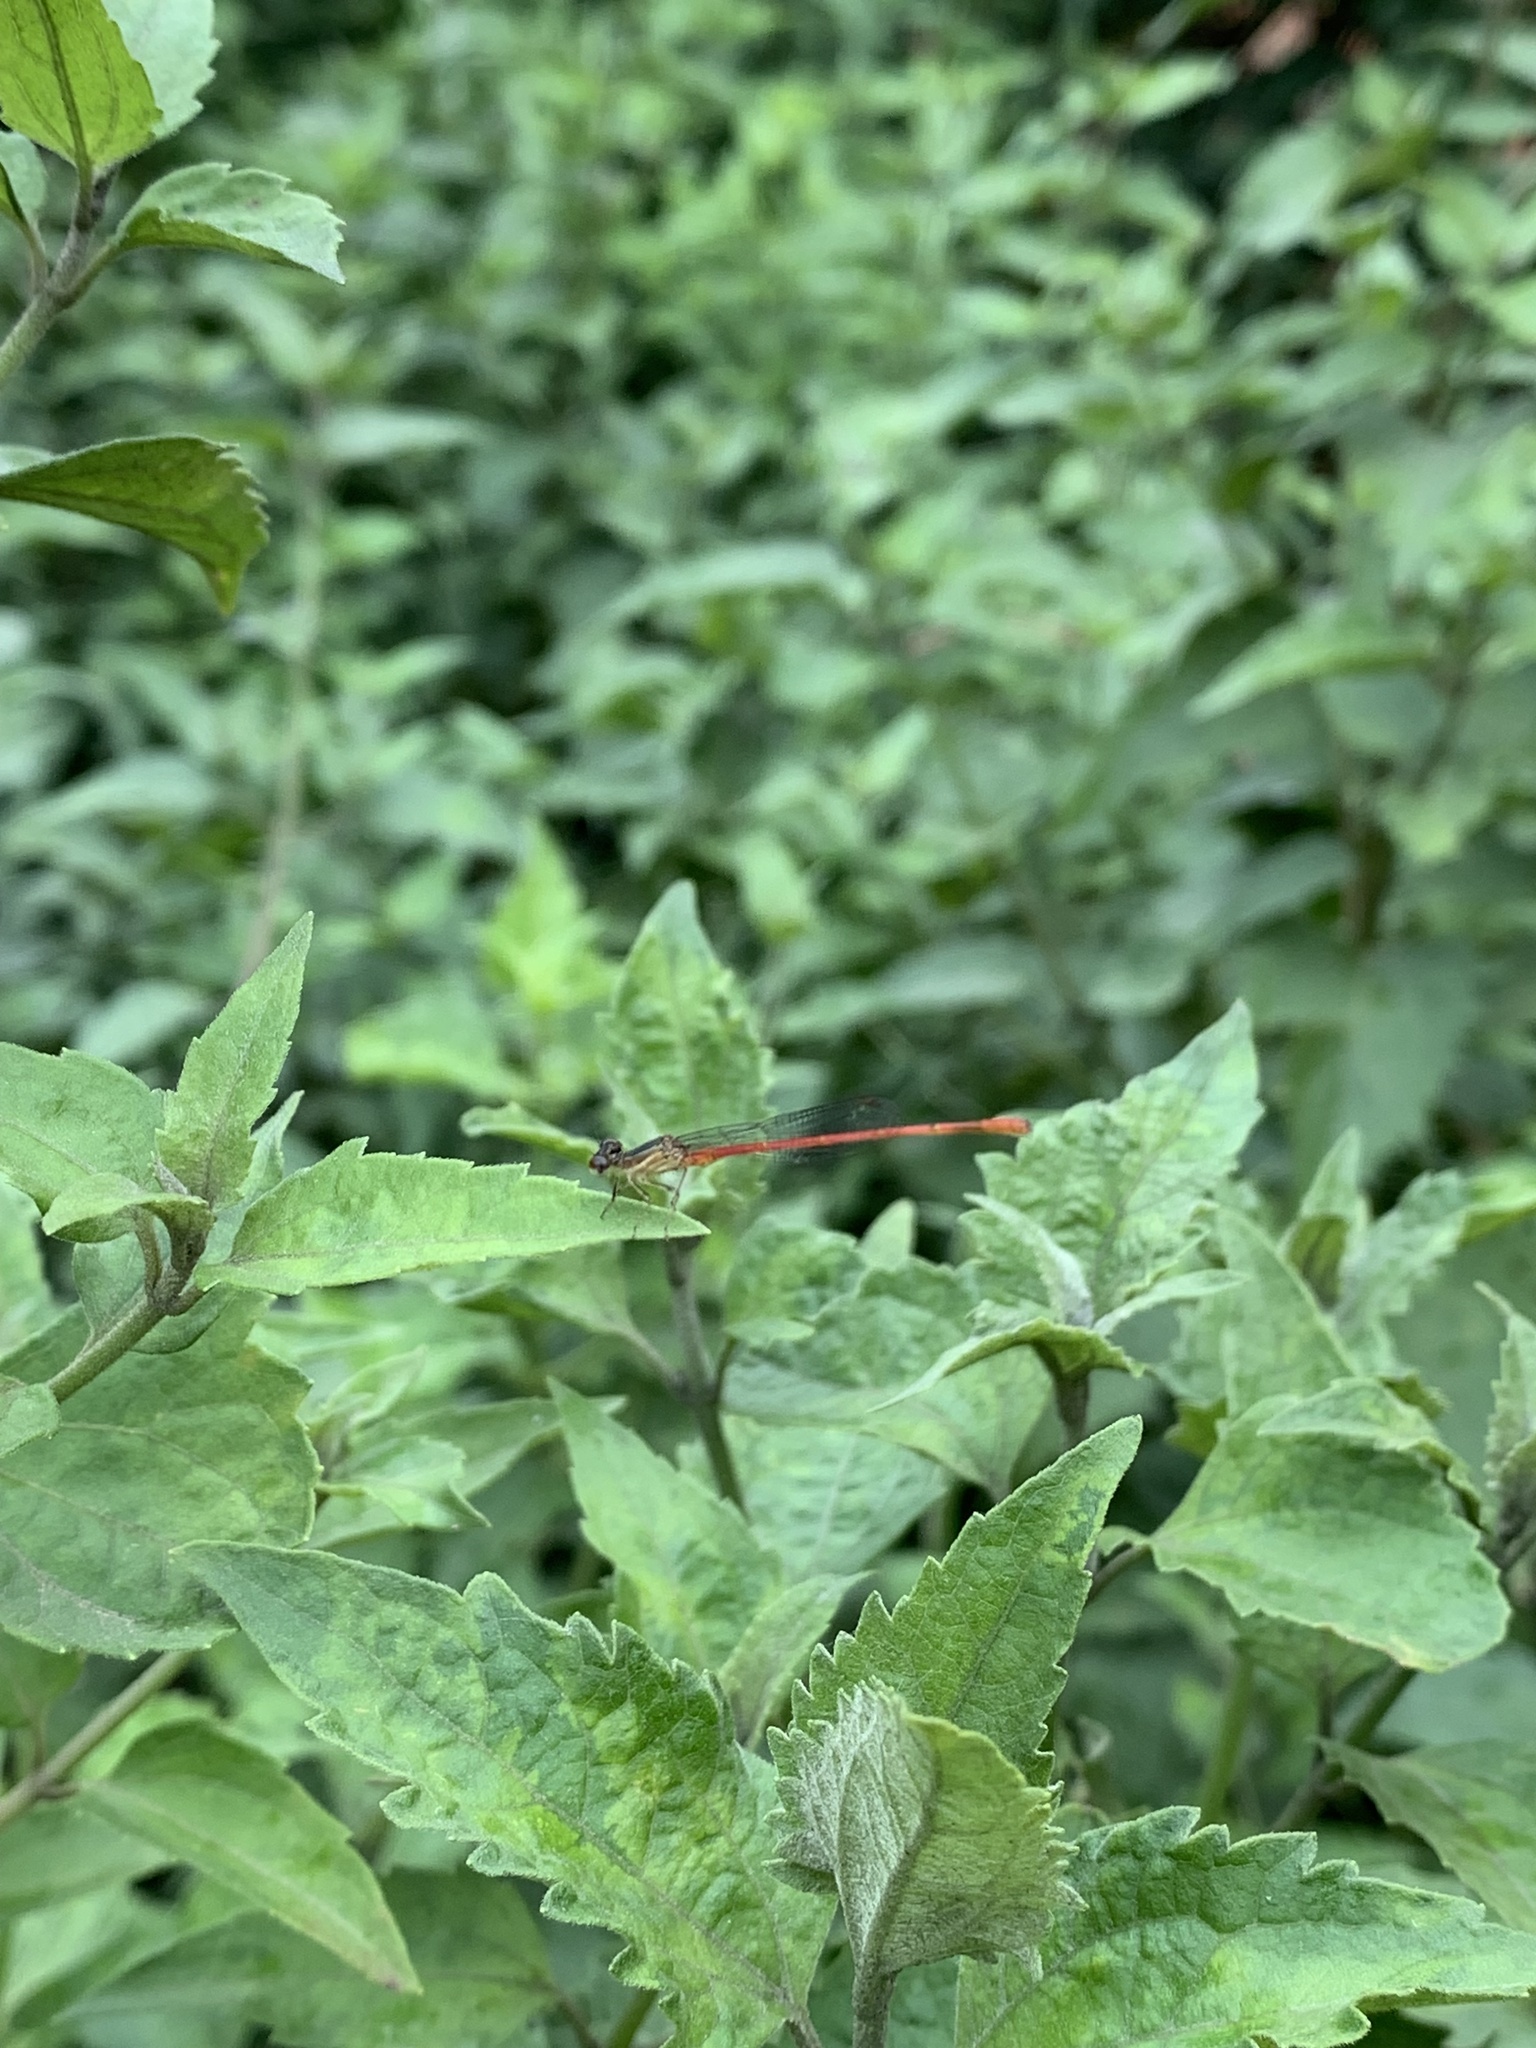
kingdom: Animalia
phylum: Arthropoda
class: Insecta
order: Odonata
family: Coenagrionidae
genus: Telebasis
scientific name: Telebasis filiola
